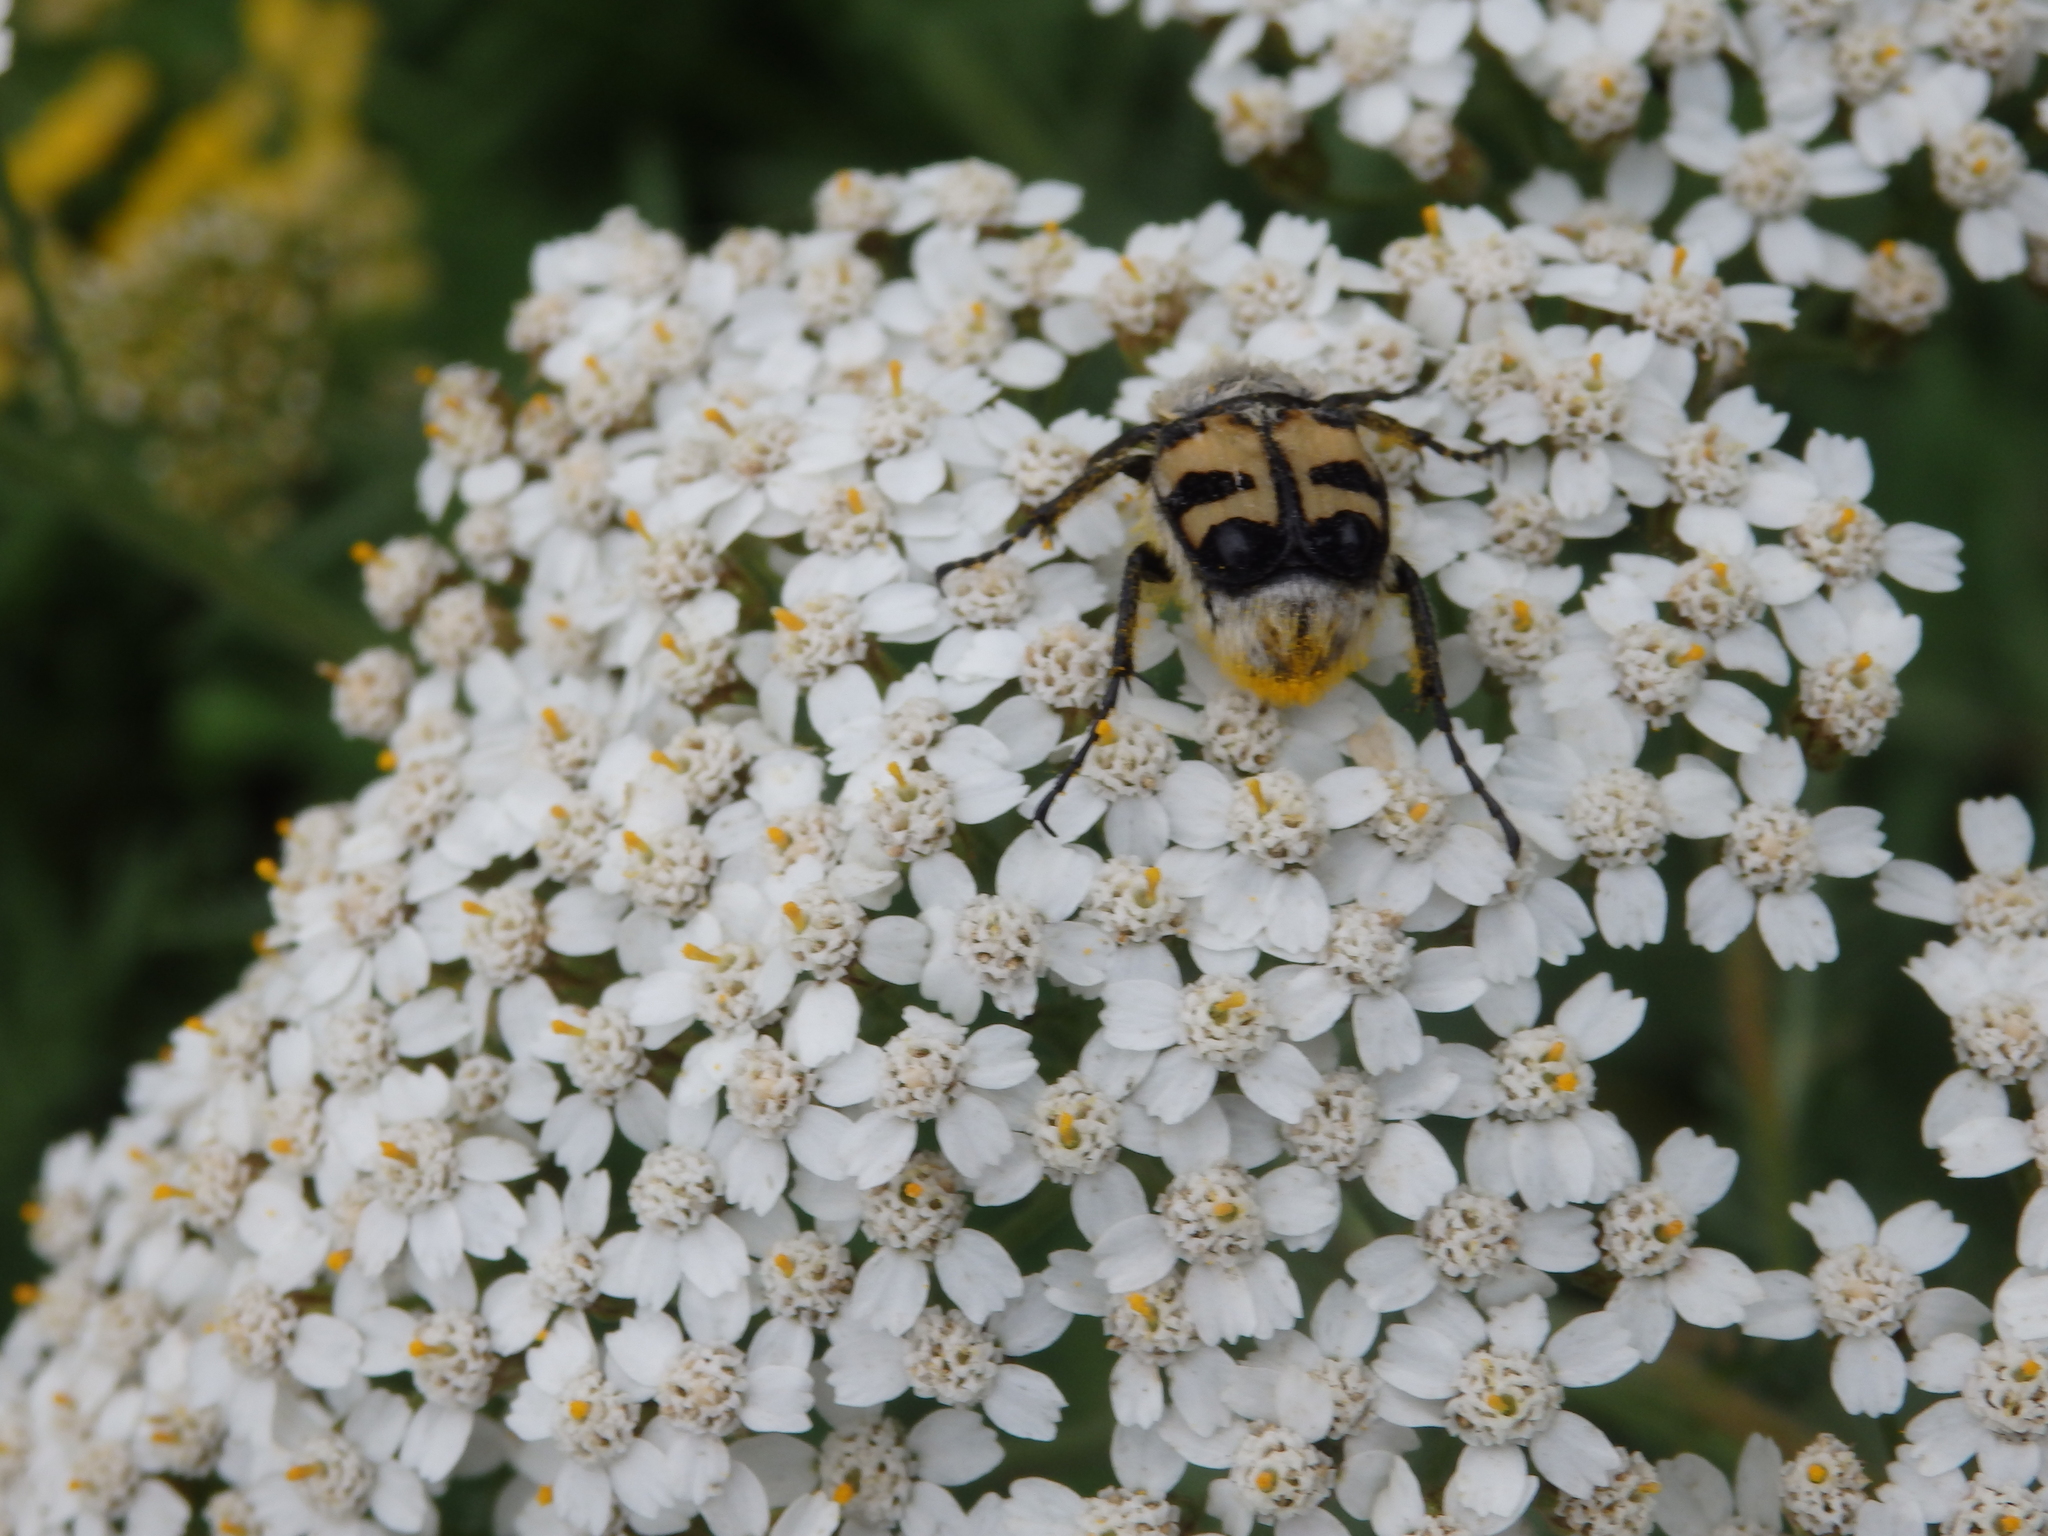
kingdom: Animalia
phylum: Arthropoda
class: Insecta
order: Coleoptera
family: Scarabaeidae
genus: Trichius
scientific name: Trichius fasciatus
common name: Bee beetle
